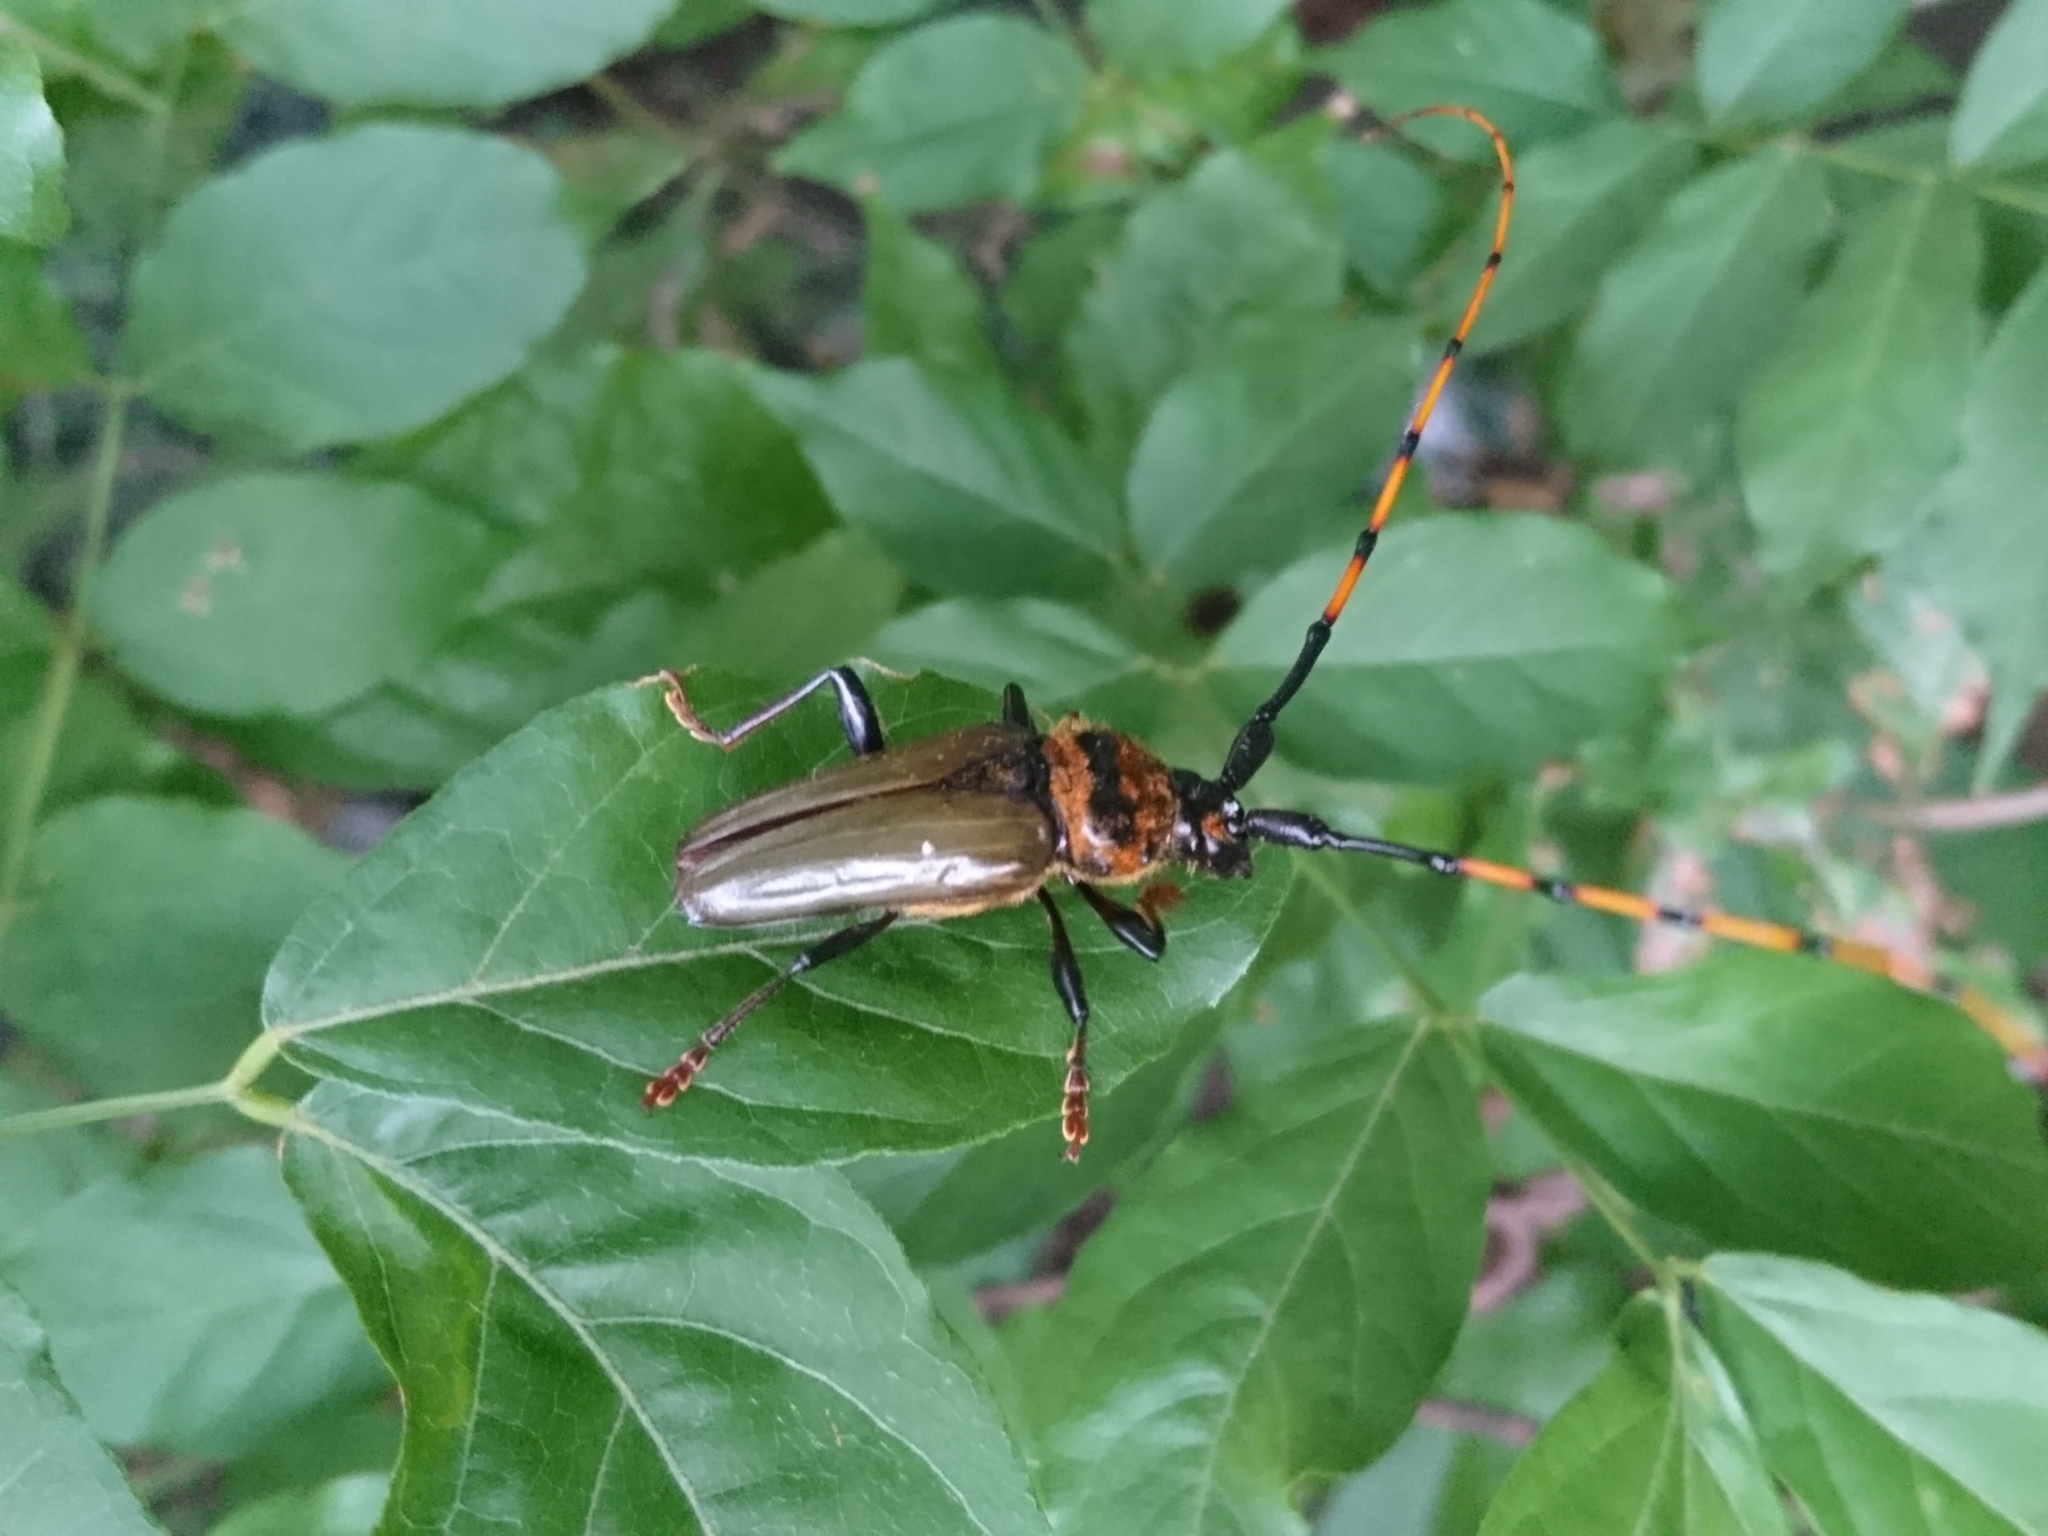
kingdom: Animalia
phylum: Arthropoda
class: Insecta
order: Coleoptera
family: Cerambycidae
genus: Retrachydes
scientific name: Retrachydes thoracicus
